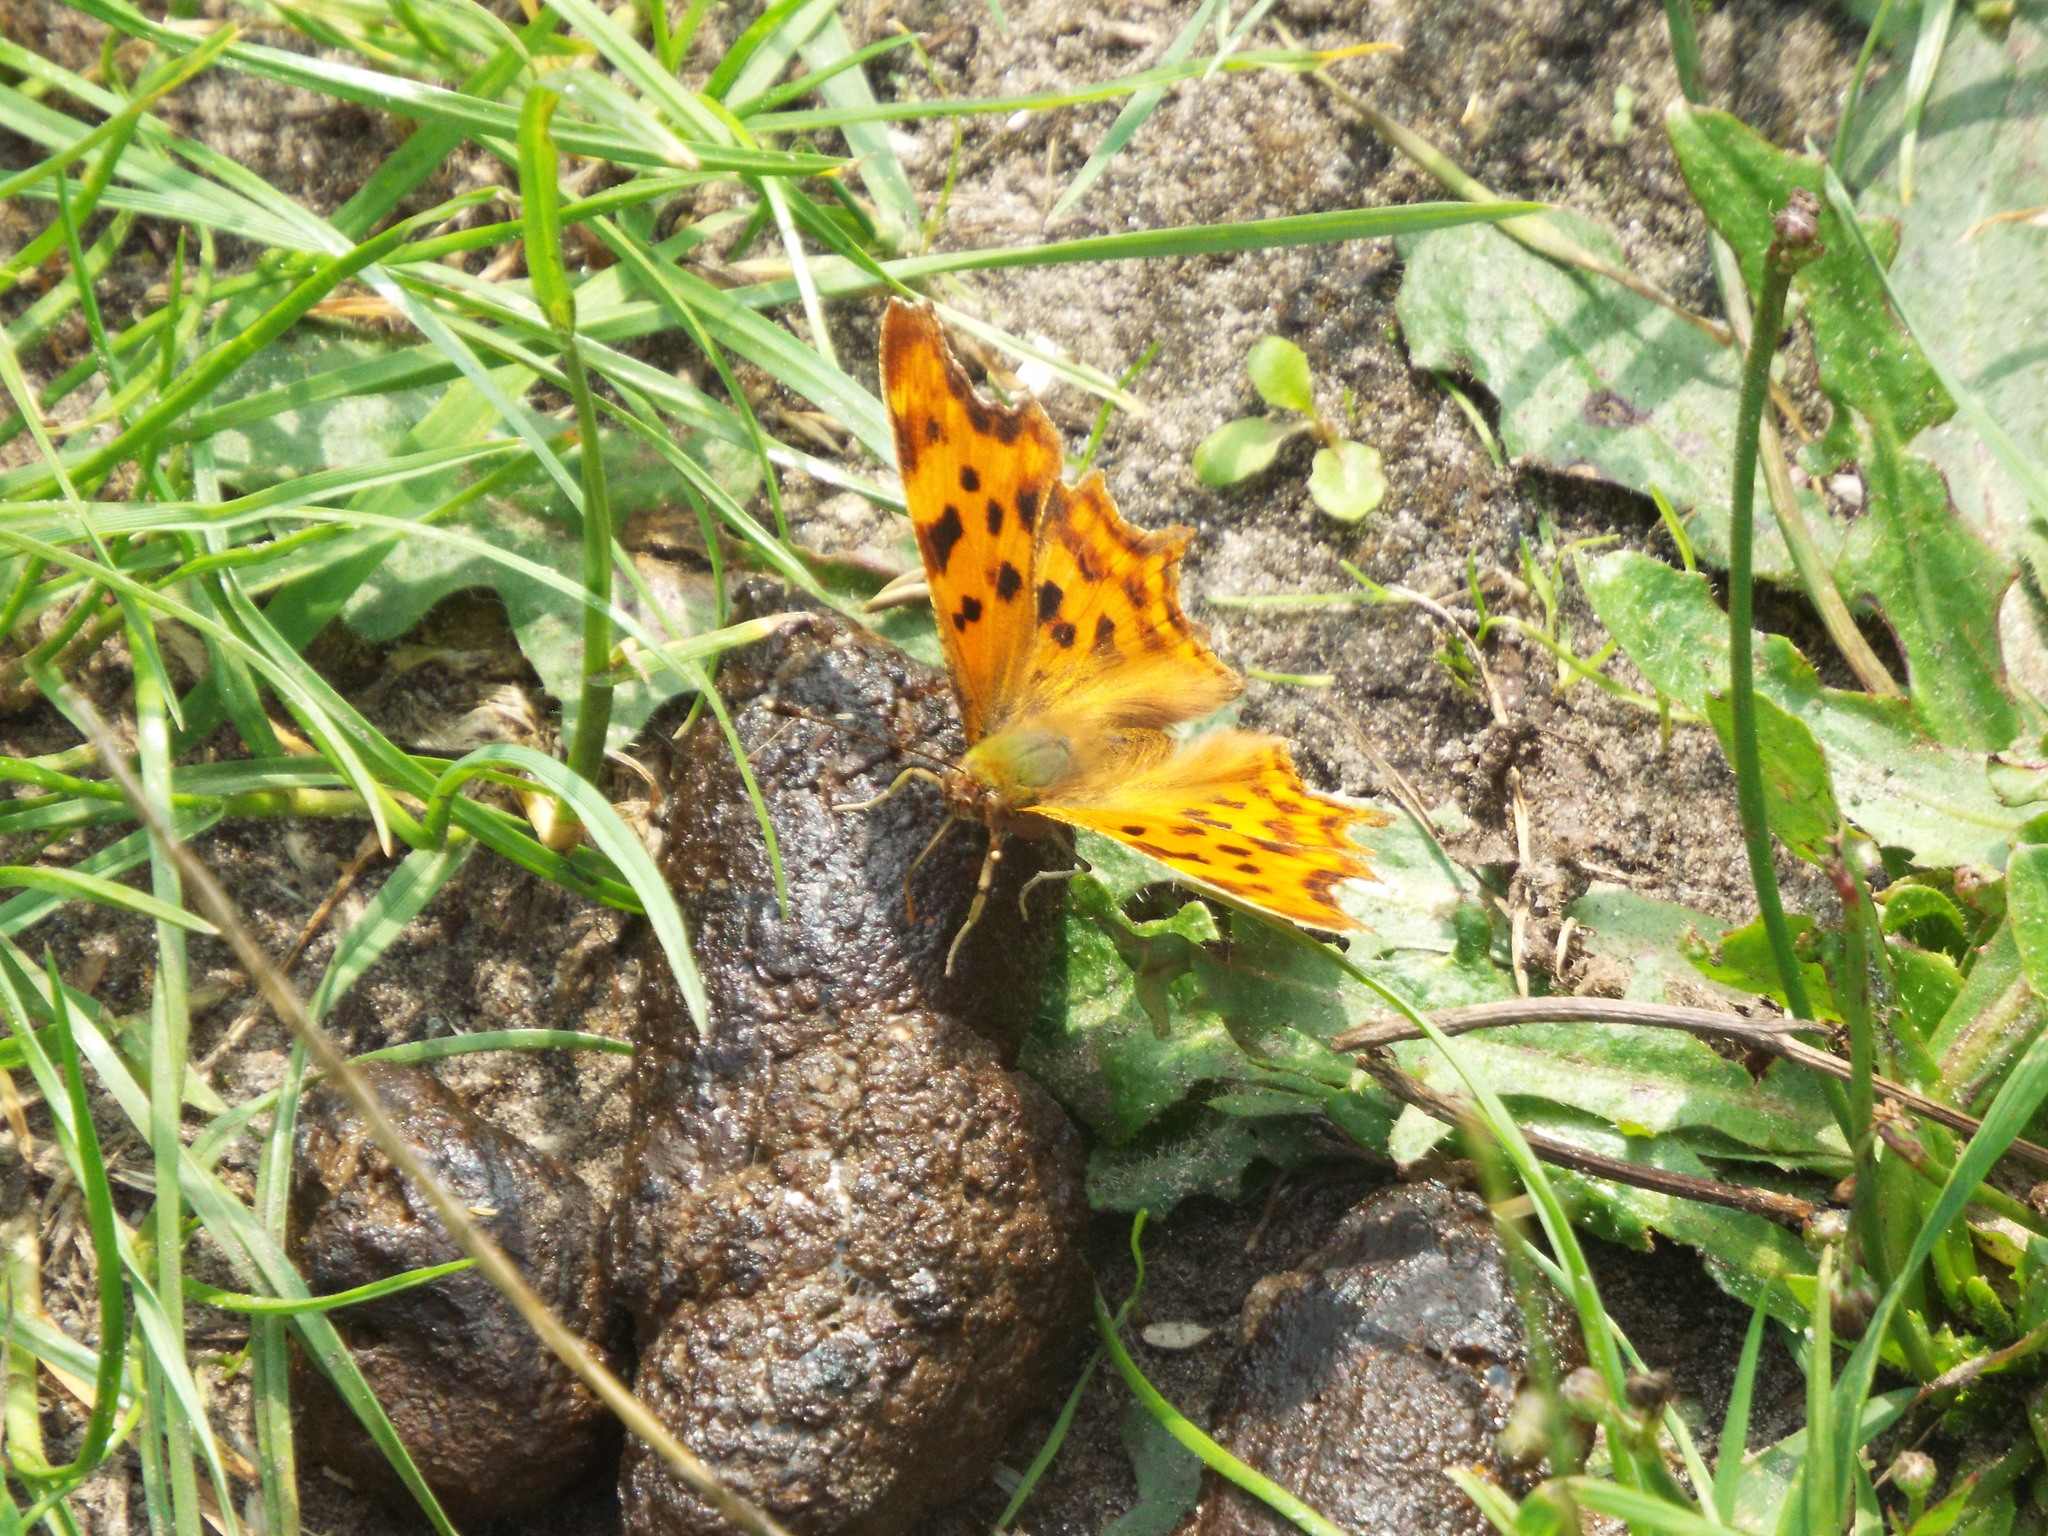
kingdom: Animalia
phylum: Arthropoda
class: Insecta
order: Lepidoptera
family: Nymphalidae
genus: Polygonia
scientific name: Polygonia c-album
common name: Comma
